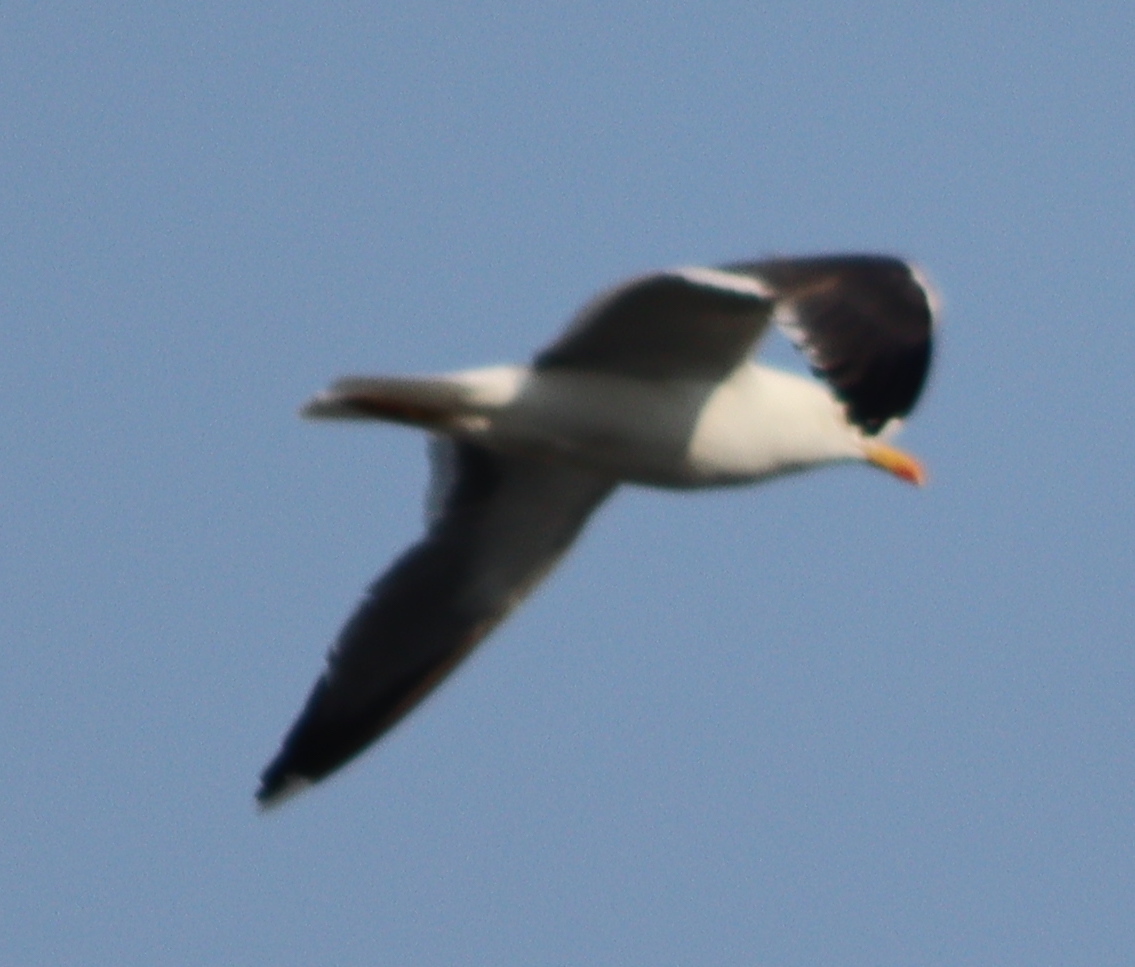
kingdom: Animalia
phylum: Chordata
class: Aves
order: Charadriiformes
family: Laridae
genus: Larus
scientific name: Larus fuscus
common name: Lesser black-backed gull
